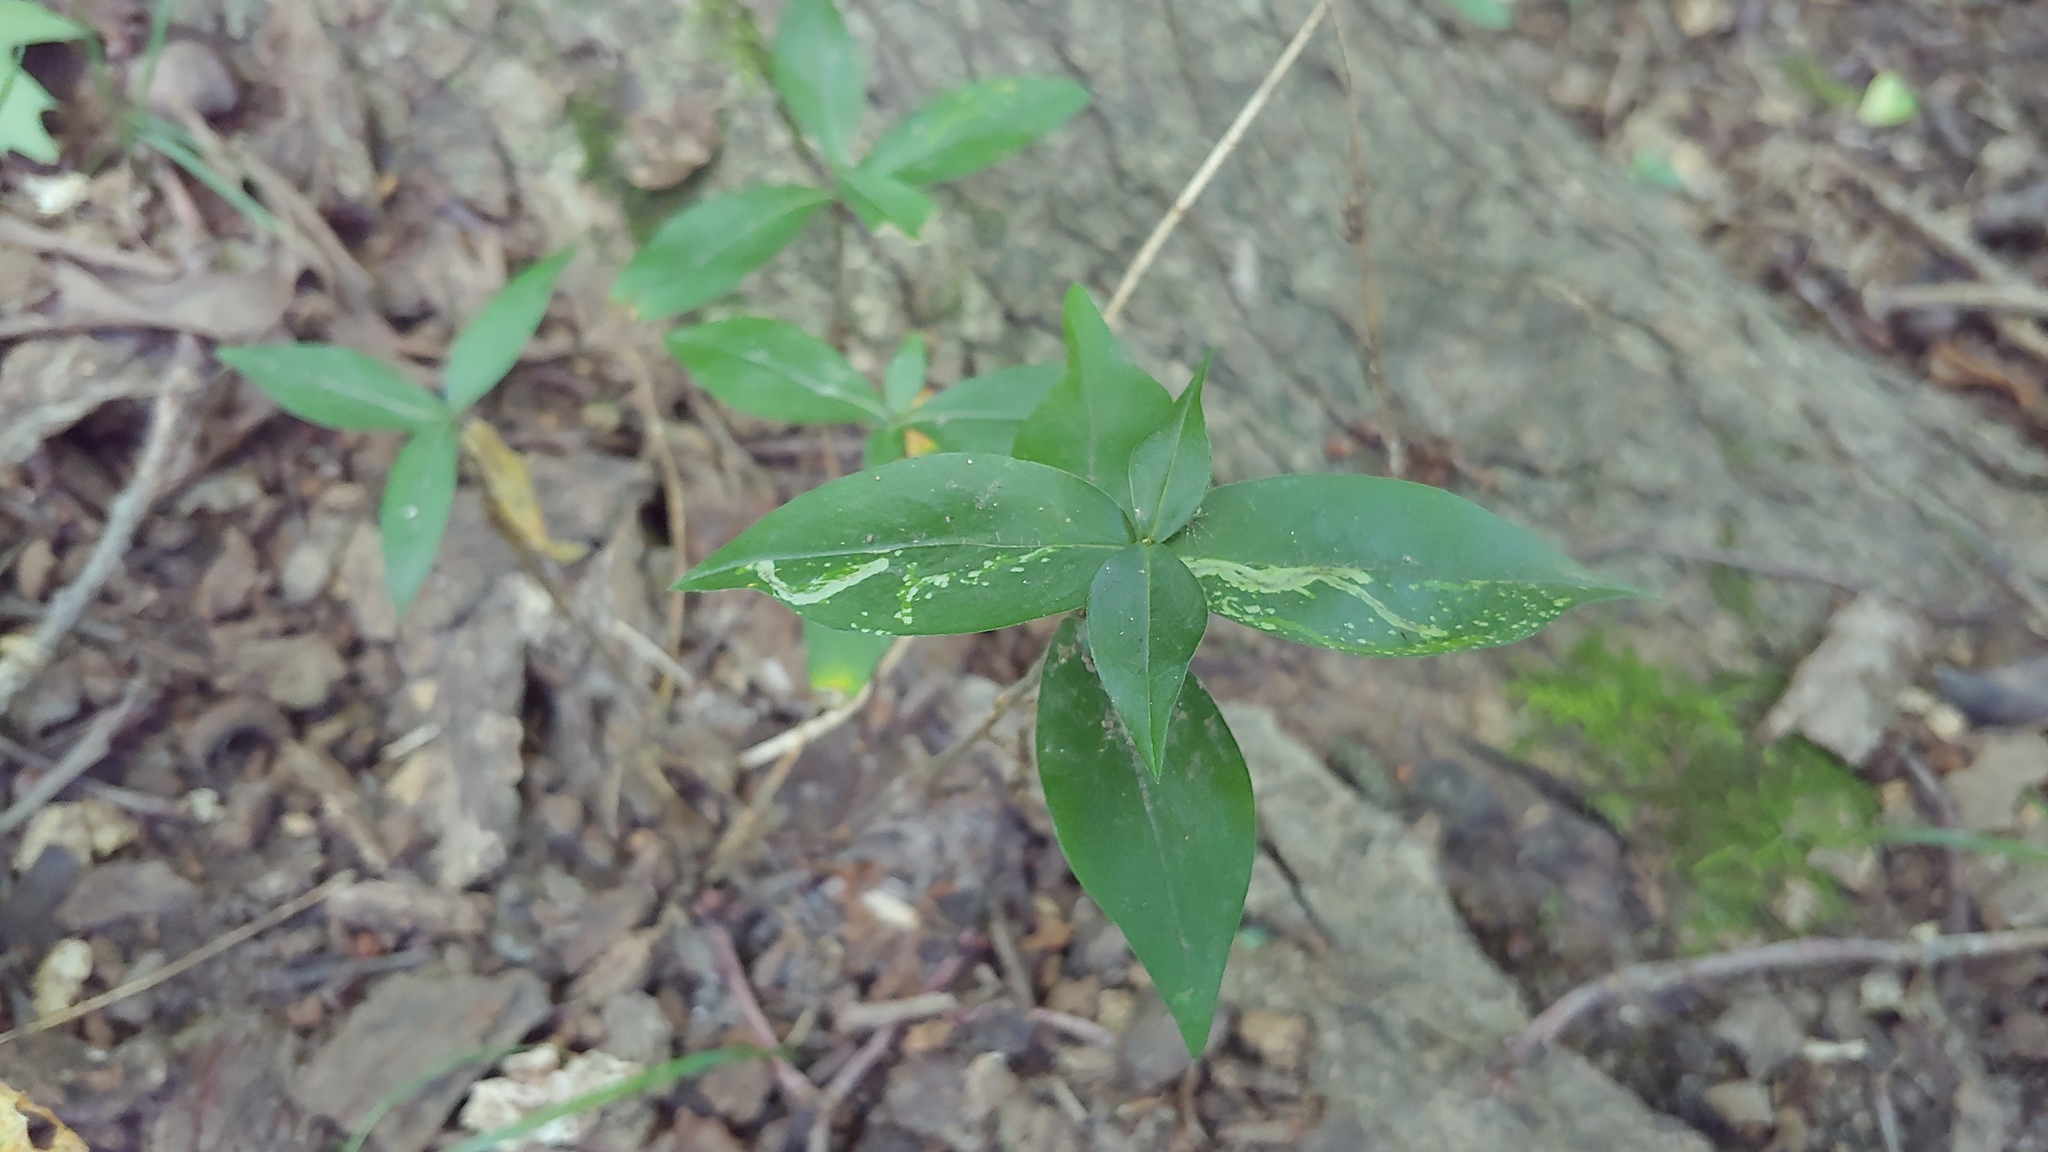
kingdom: Animalia
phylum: Arthropoda
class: Insecta
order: Diptera
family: Agromyzidae
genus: Amauromyza
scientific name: Amauromyza flavifrons
